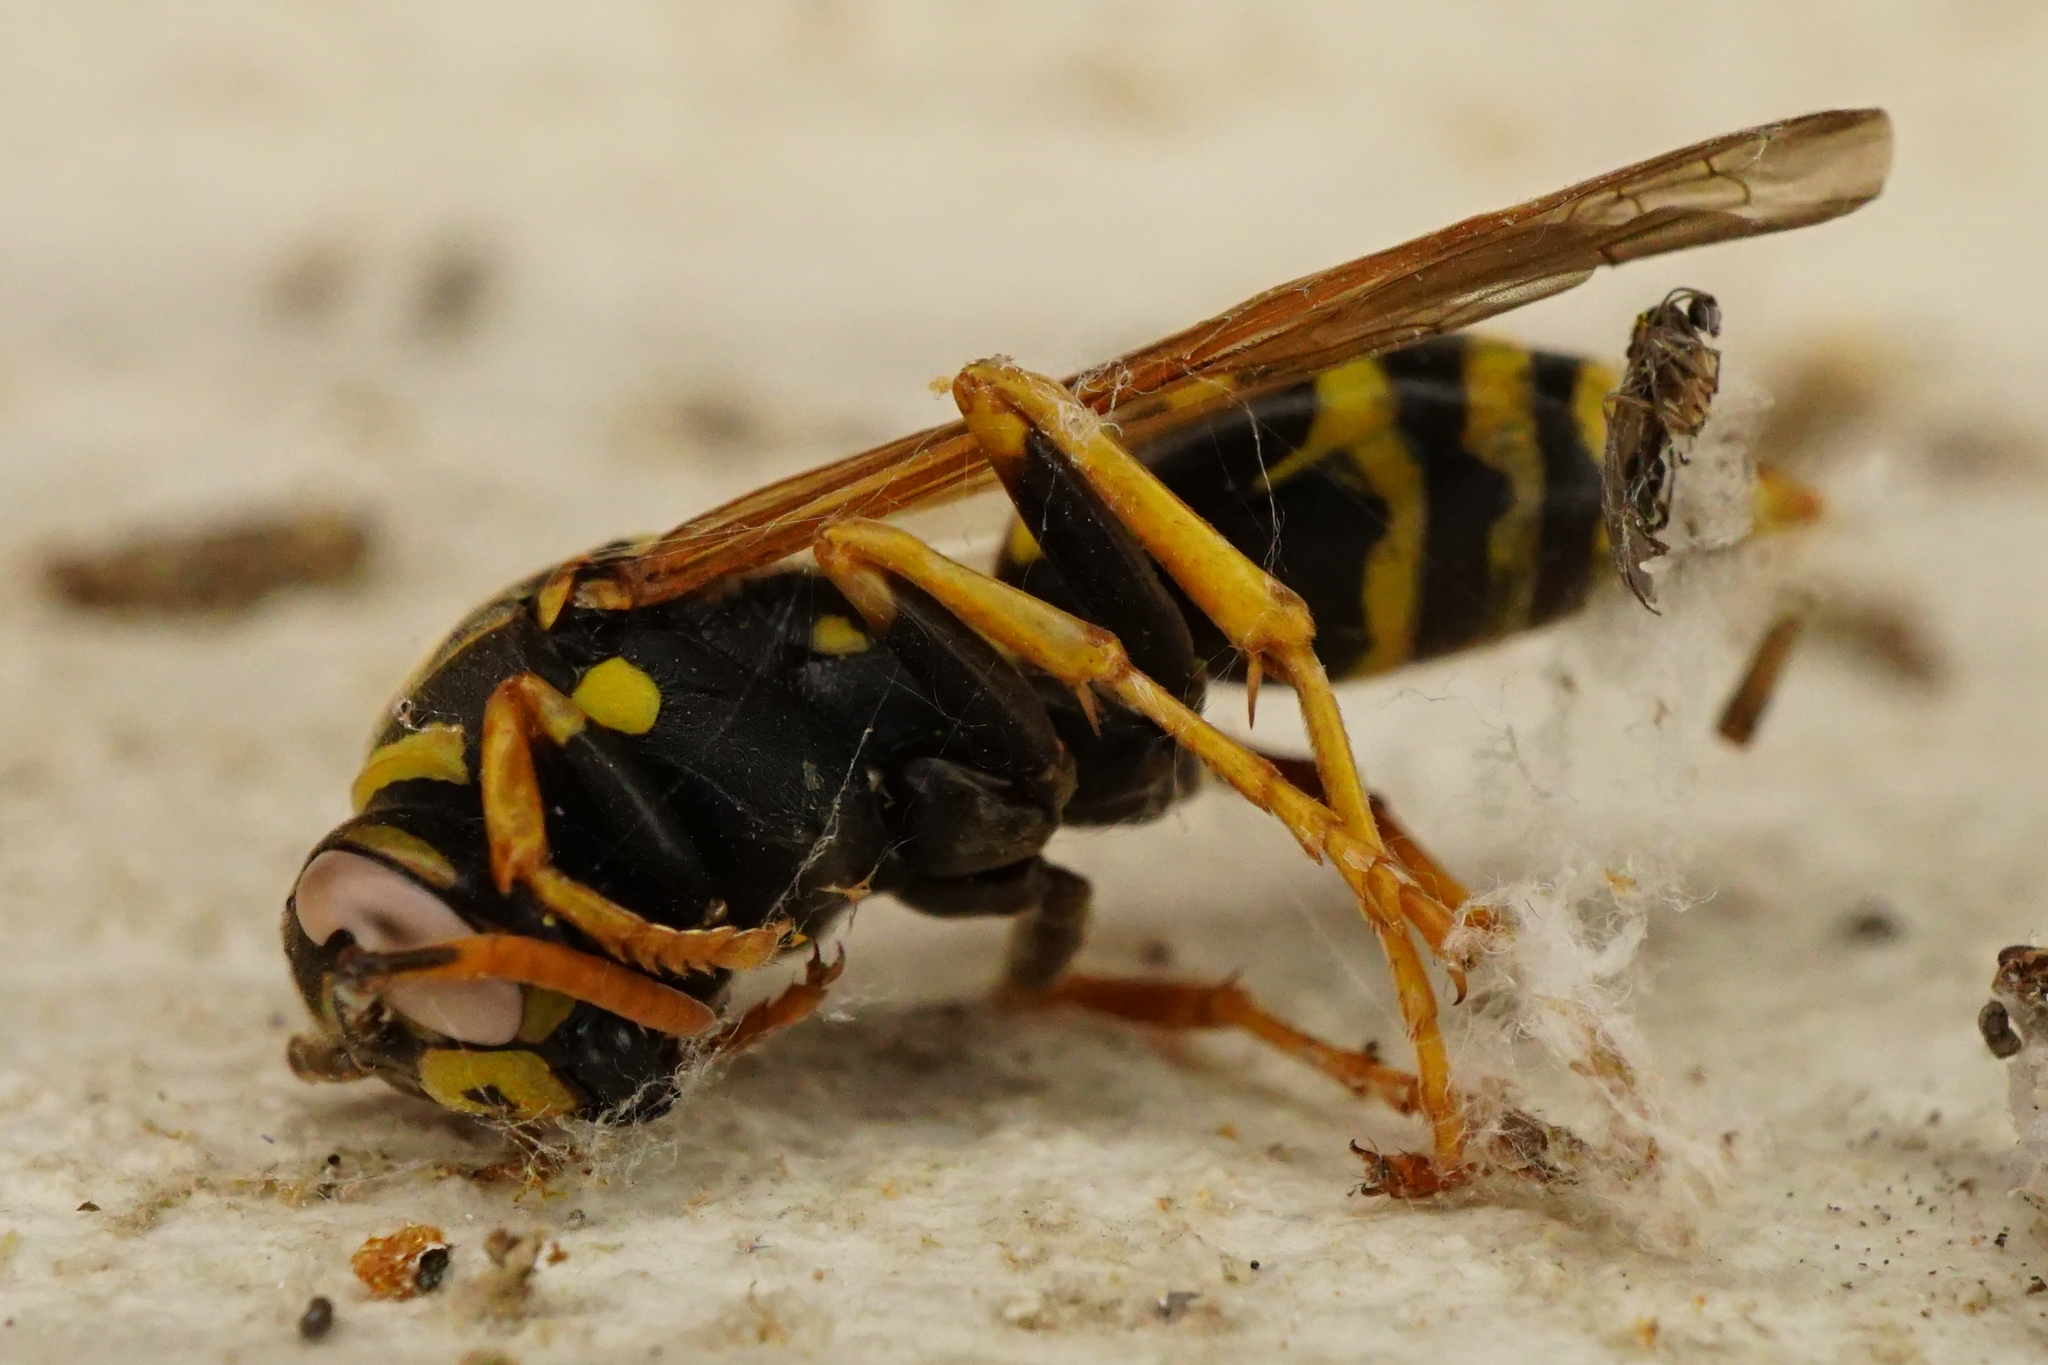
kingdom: Animalia
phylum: Arthropoda
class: Insecta
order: Hymenoptera
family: Eumenidae
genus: Polistes
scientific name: Polistes dominula
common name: Paper wasp
